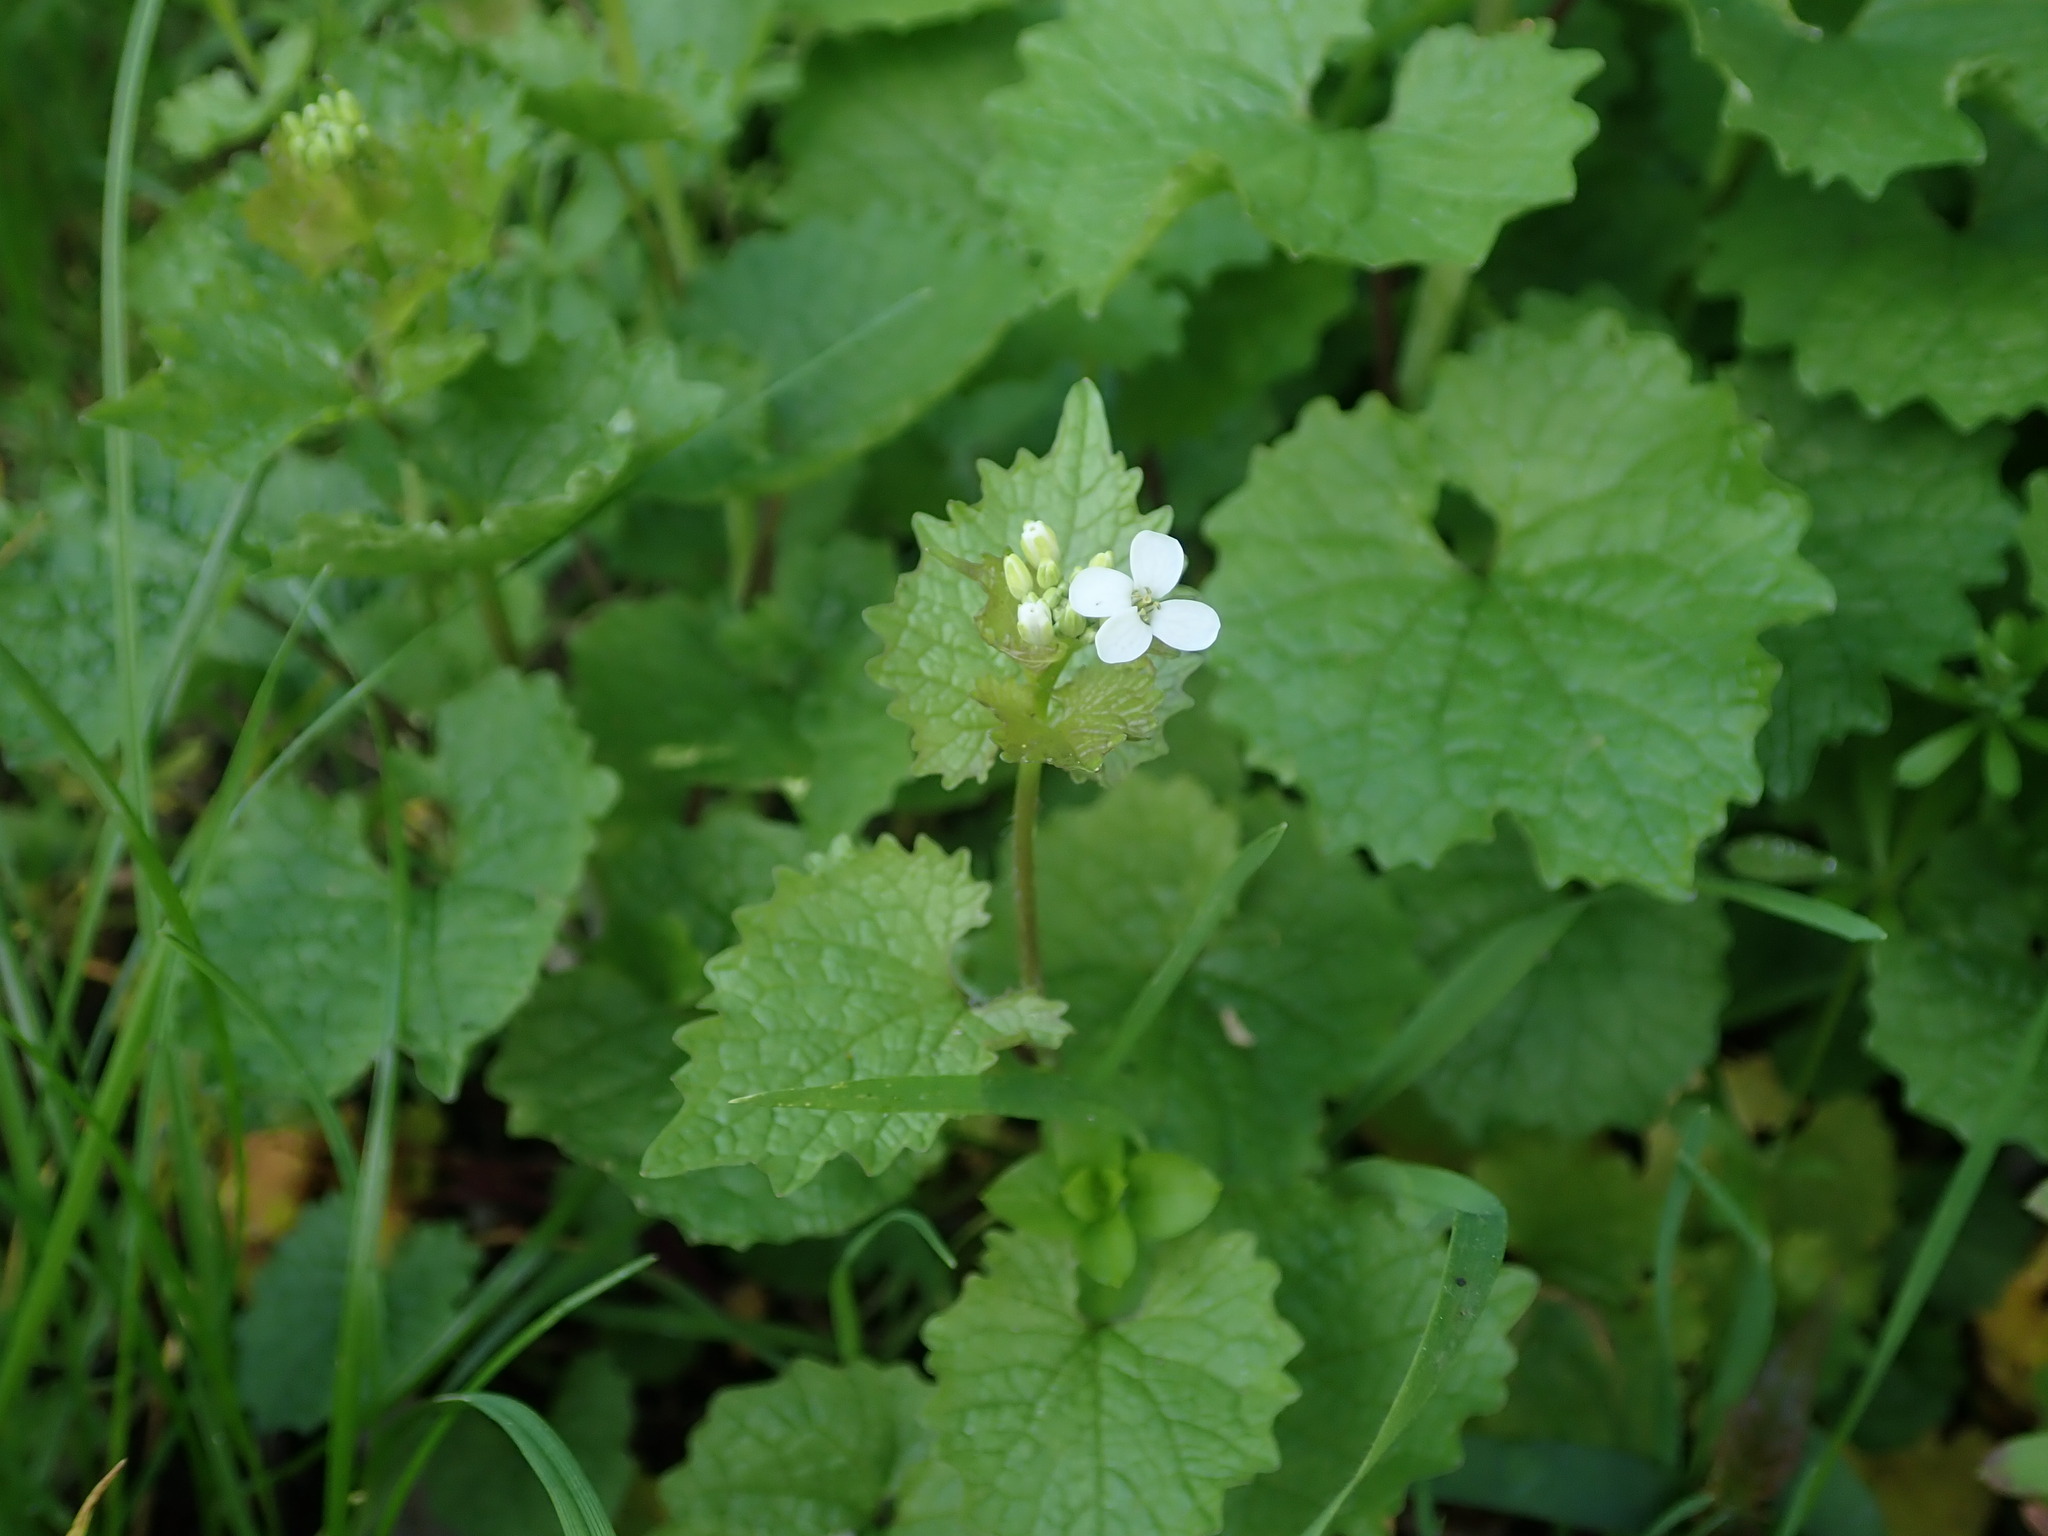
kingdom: Plantae
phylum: Tracheophyta
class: Magnoliopsida
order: Brassicales
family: Brassicaceae
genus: Alliaria
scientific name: Alliaria petiolata
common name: Garlic mustard
